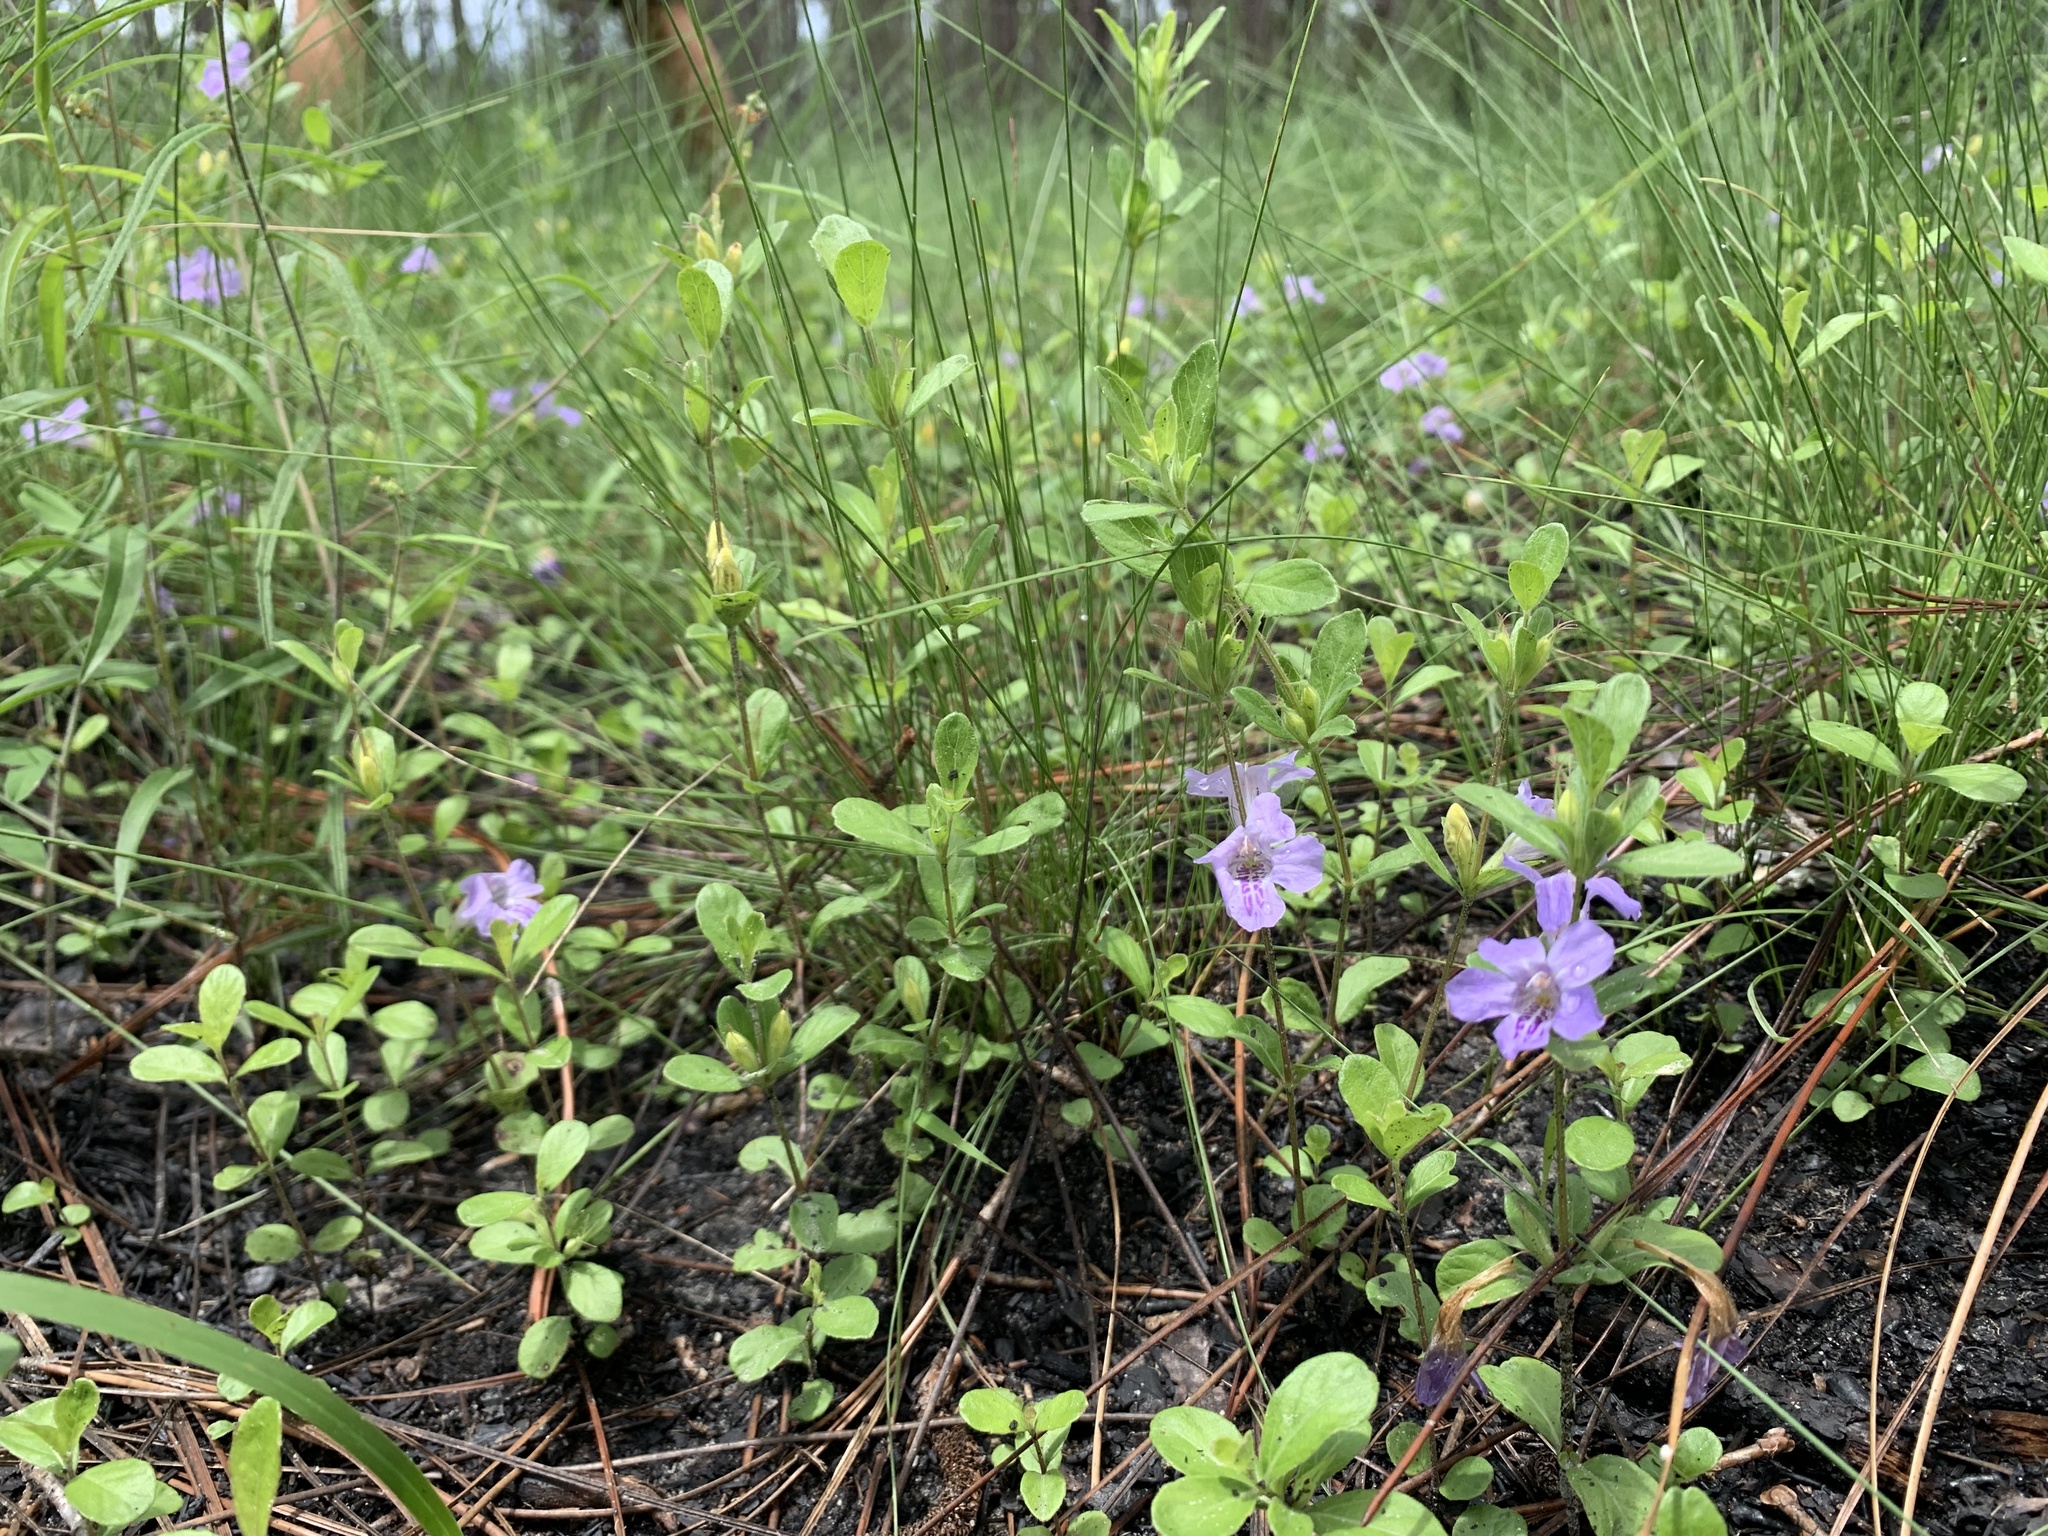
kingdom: Plantae
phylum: Tracheophyta
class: Magnoliopsida
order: Lamiales
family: Acanthaceae
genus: Dyschoriste
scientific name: Dyschoriste oblongifolia
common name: Blue twinflower
